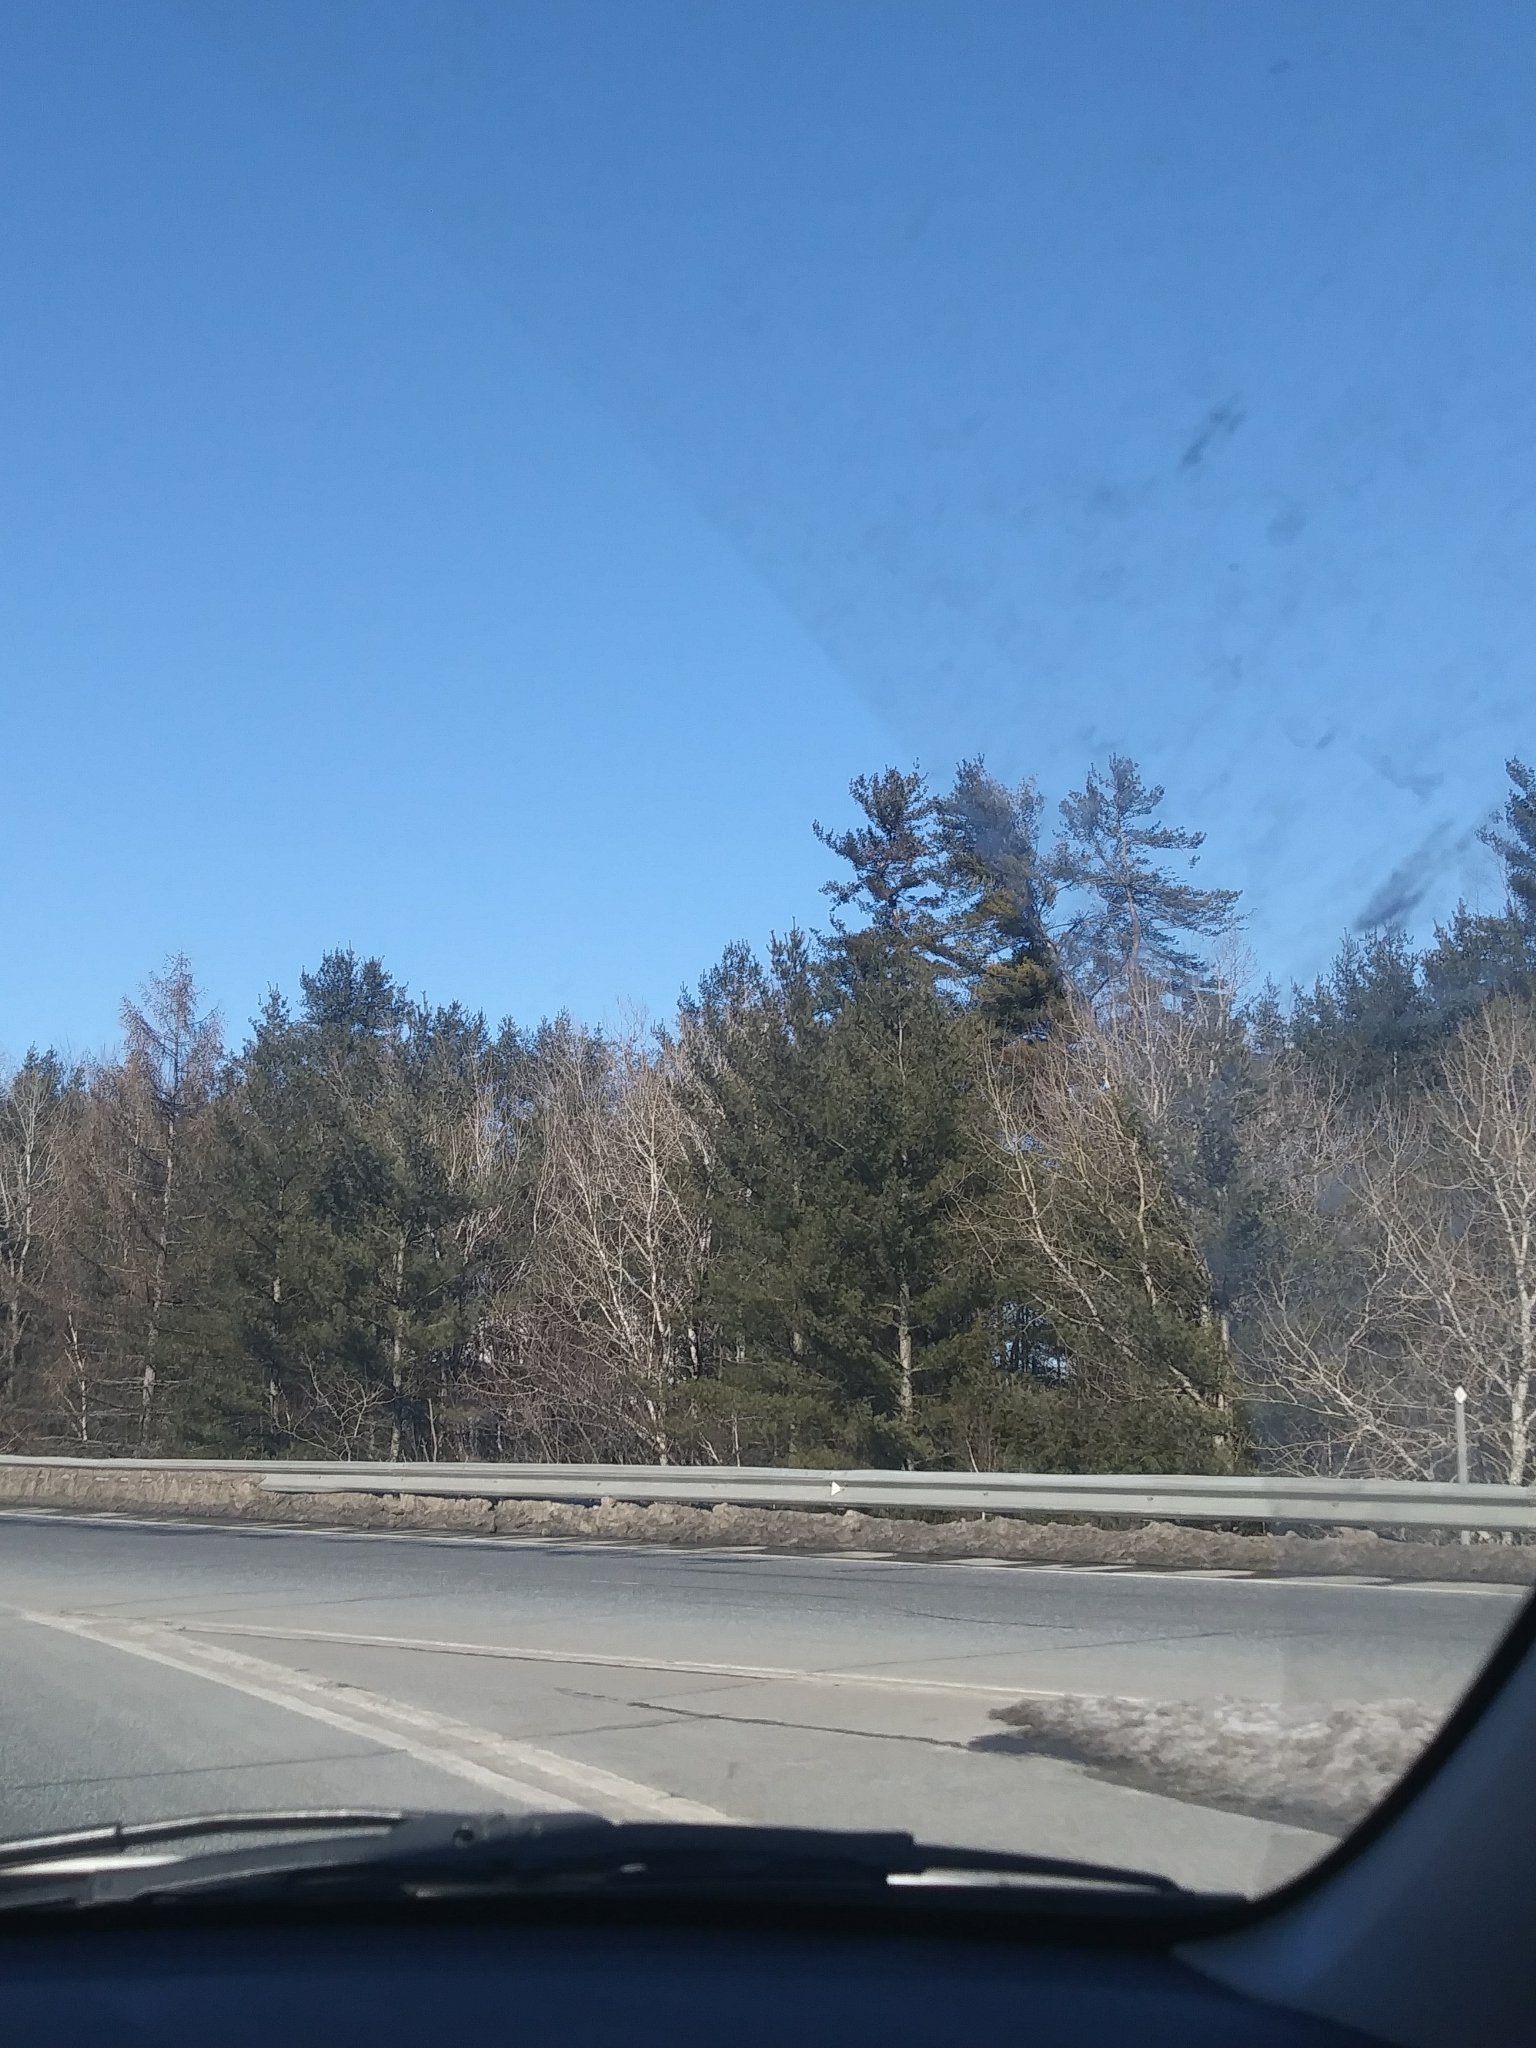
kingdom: Plantae
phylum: Tracheophyta
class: Pinopsida
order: Pinales
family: Pinaceae
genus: Pinus
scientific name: Pinus strobus
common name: Weymouth pine
